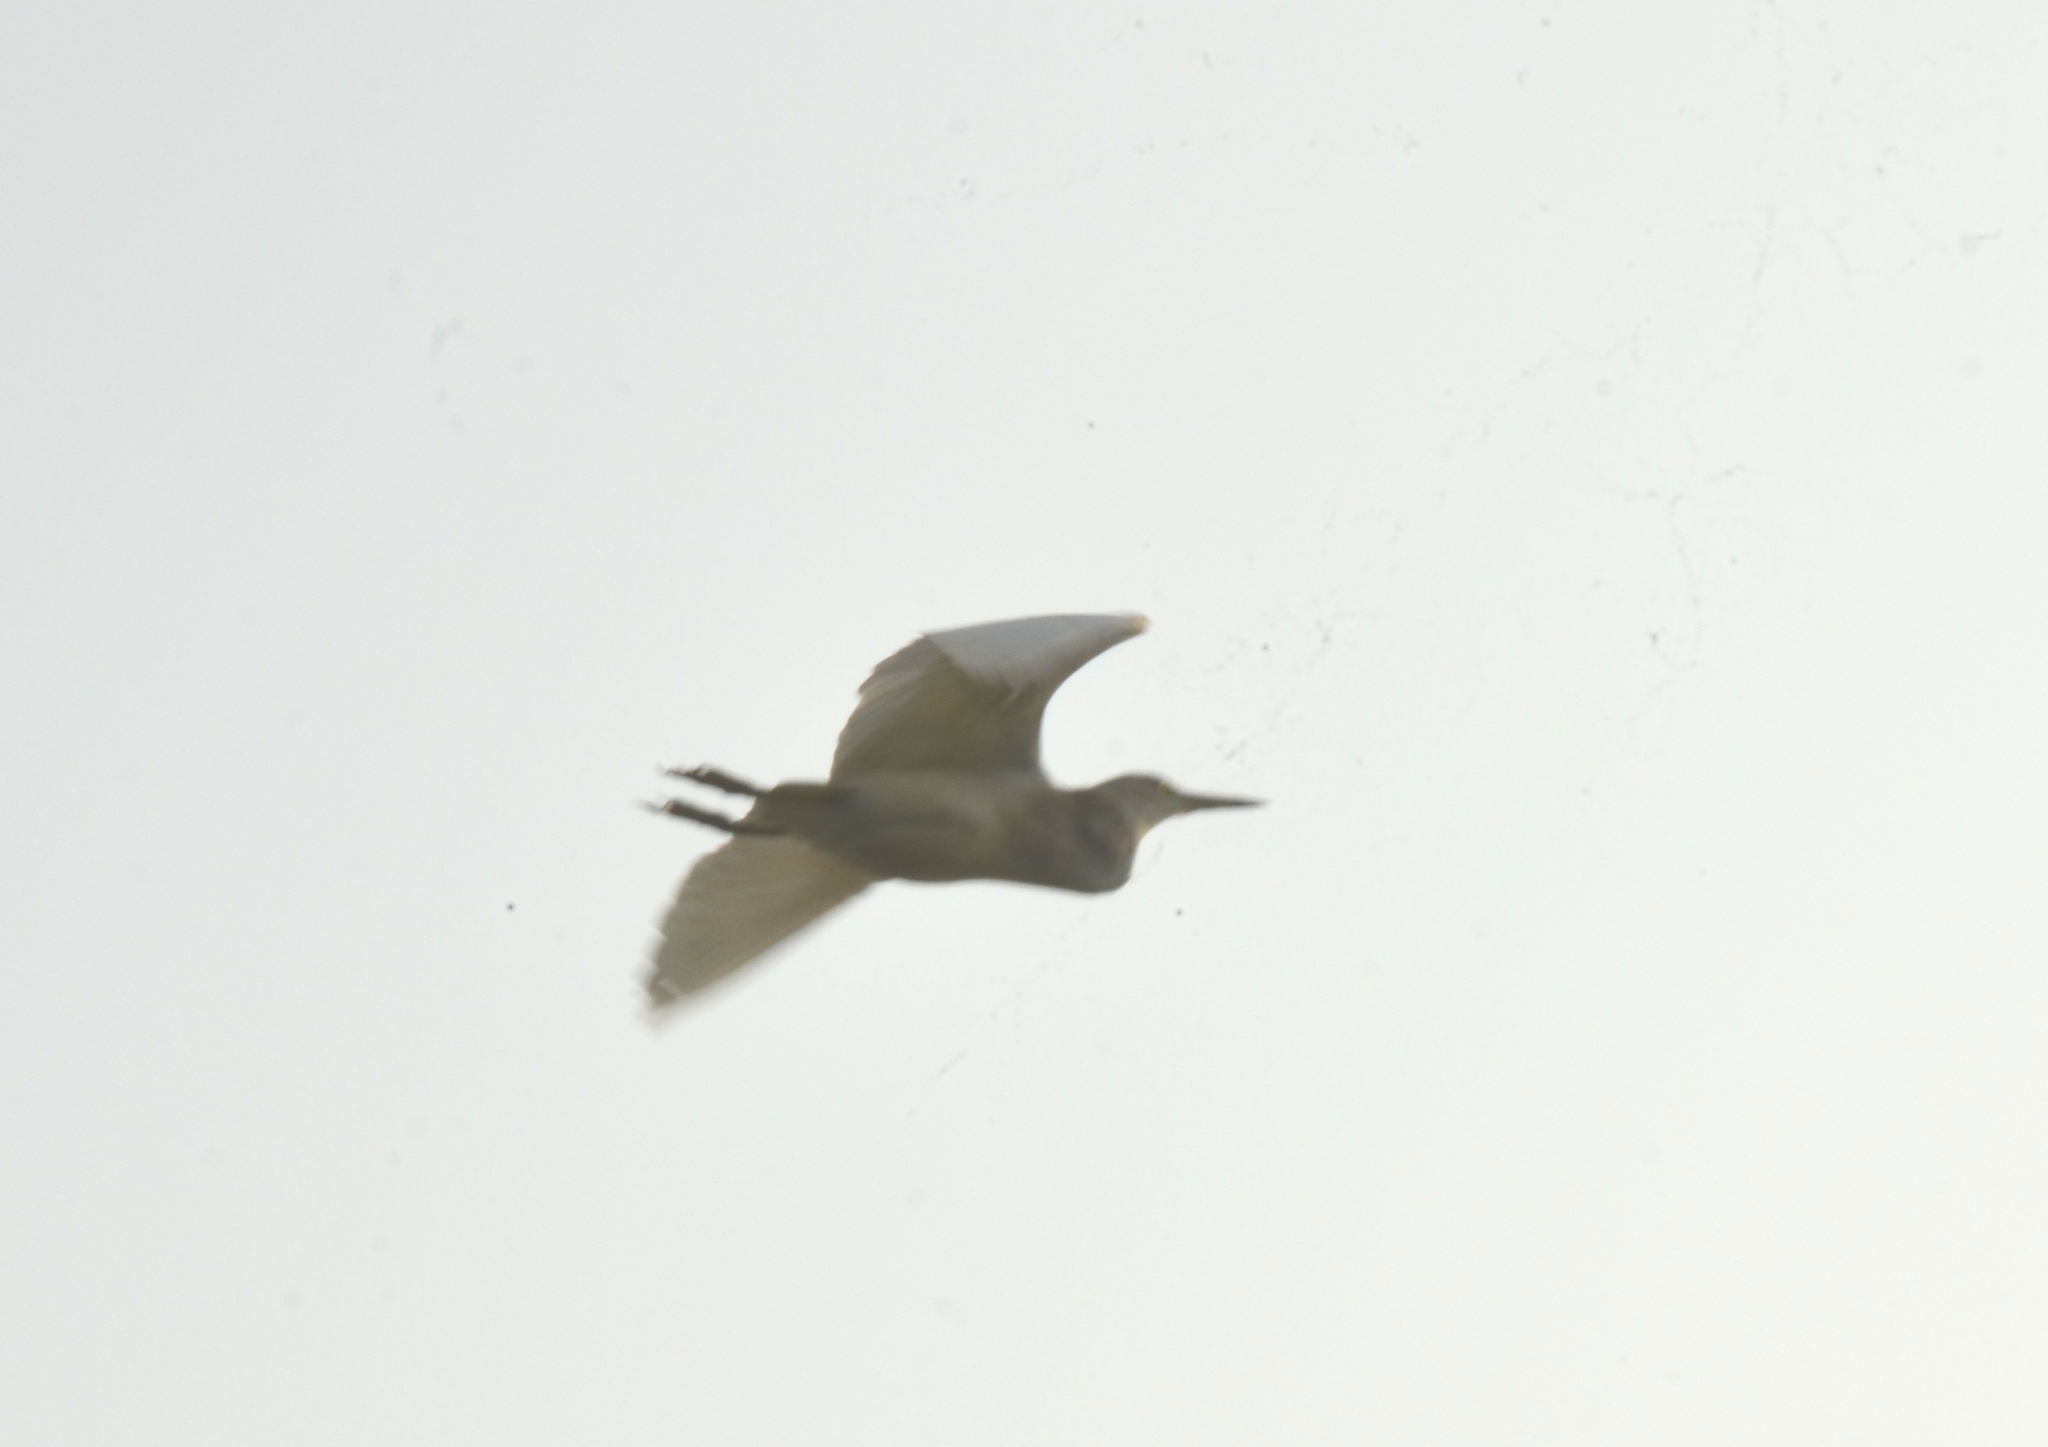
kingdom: Animalia
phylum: Chordata
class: Aves
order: Pelecaniformes
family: Ardeidae
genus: Ardeola
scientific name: Ardeola grayii
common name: Indian pond heron
